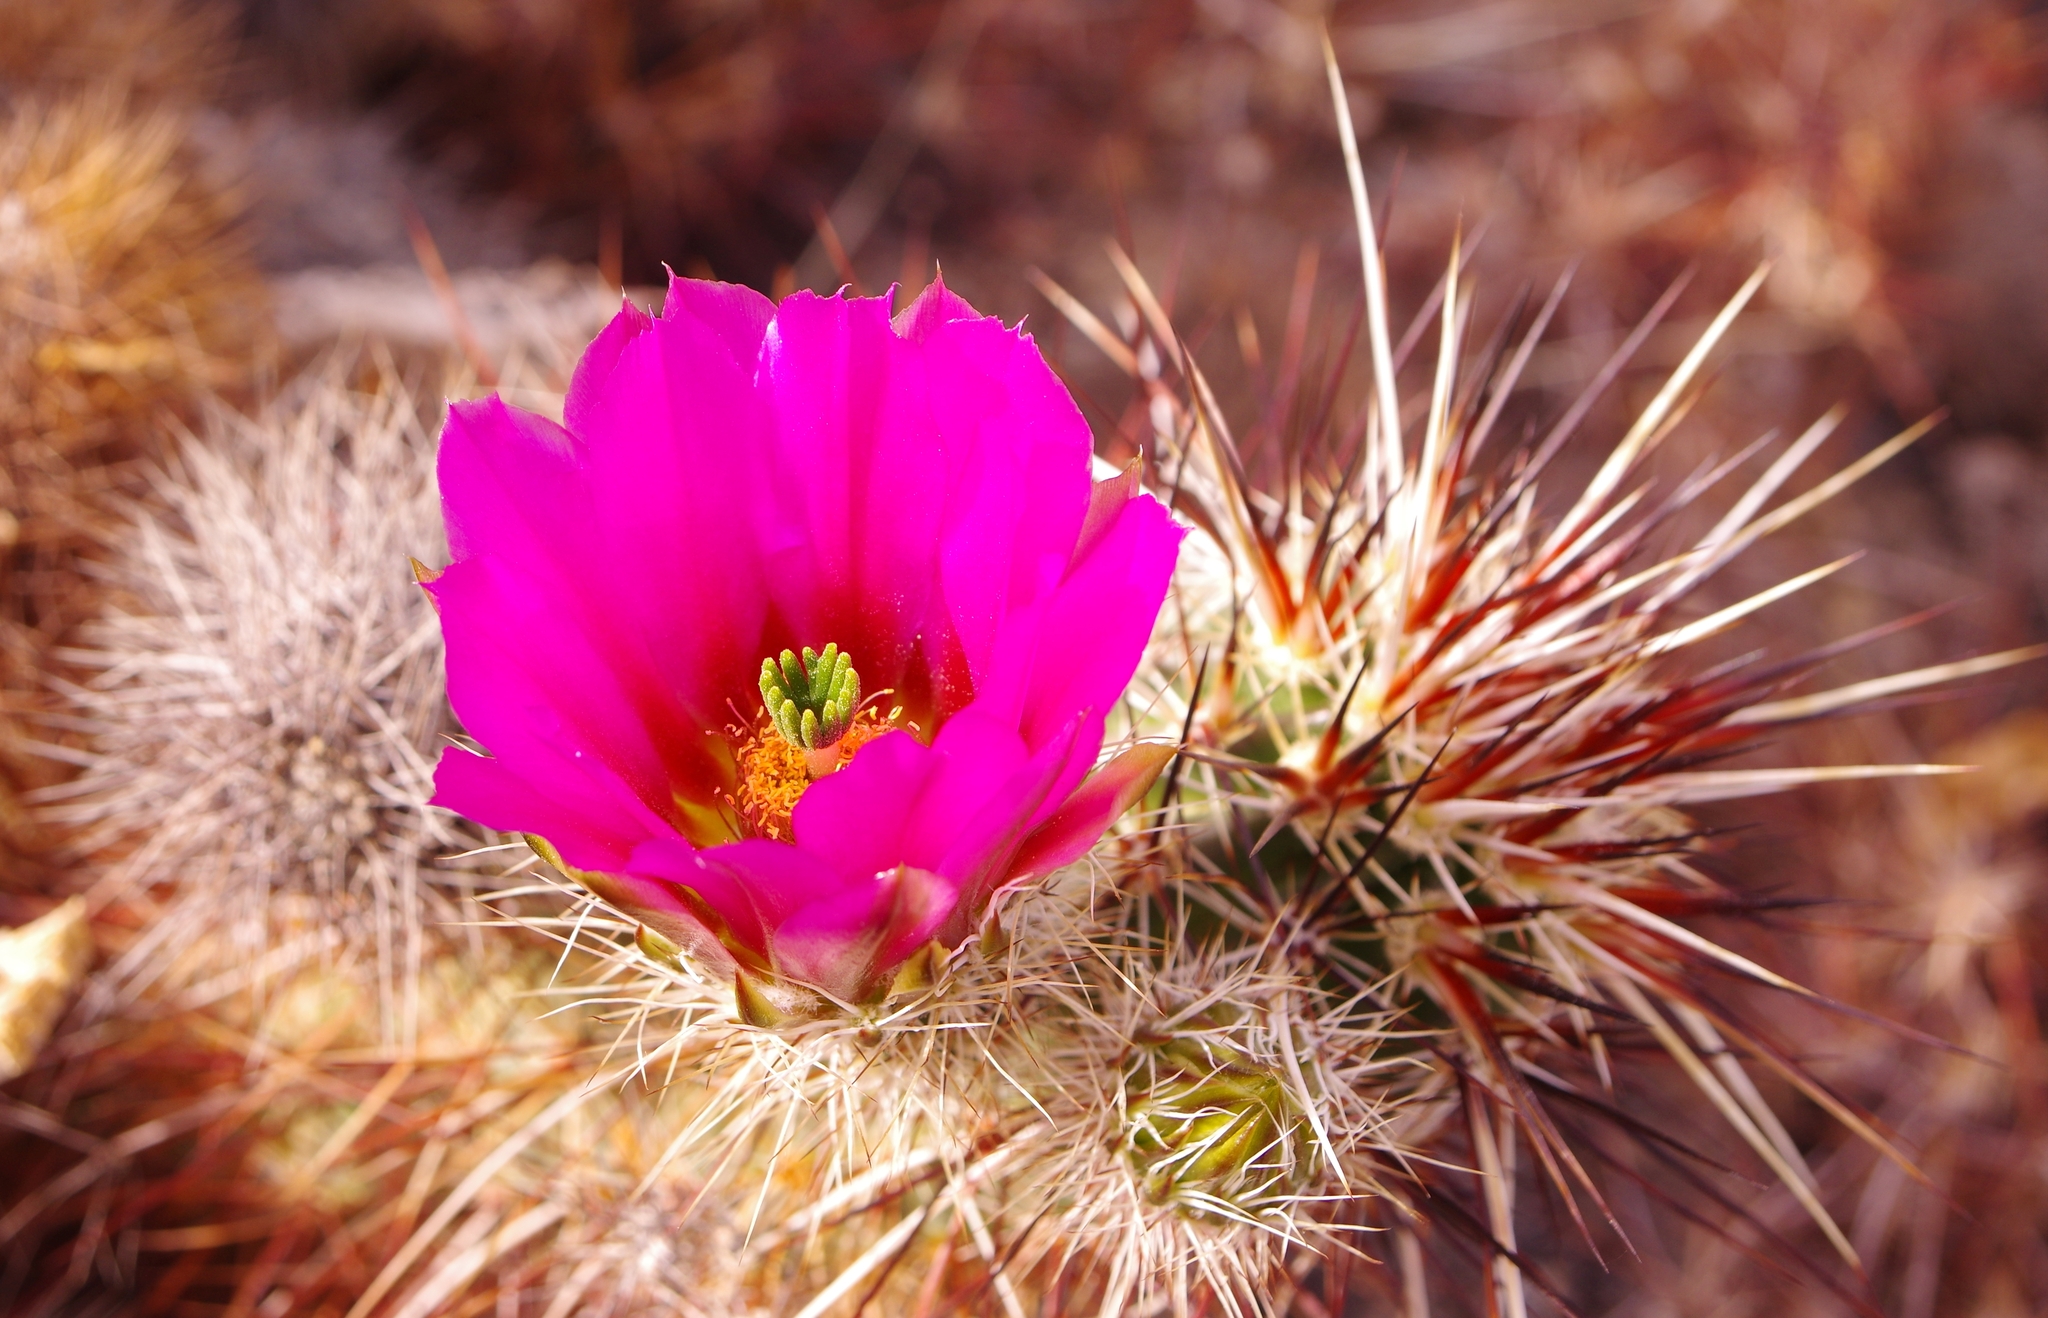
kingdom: Plantae
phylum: Tracheophyta
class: Magnoliopsida
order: Caryophyllales
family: Cactaceae
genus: Echinocereus
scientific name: Echinocereus engelmannii
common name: Engelmann's hedgehog cactus
